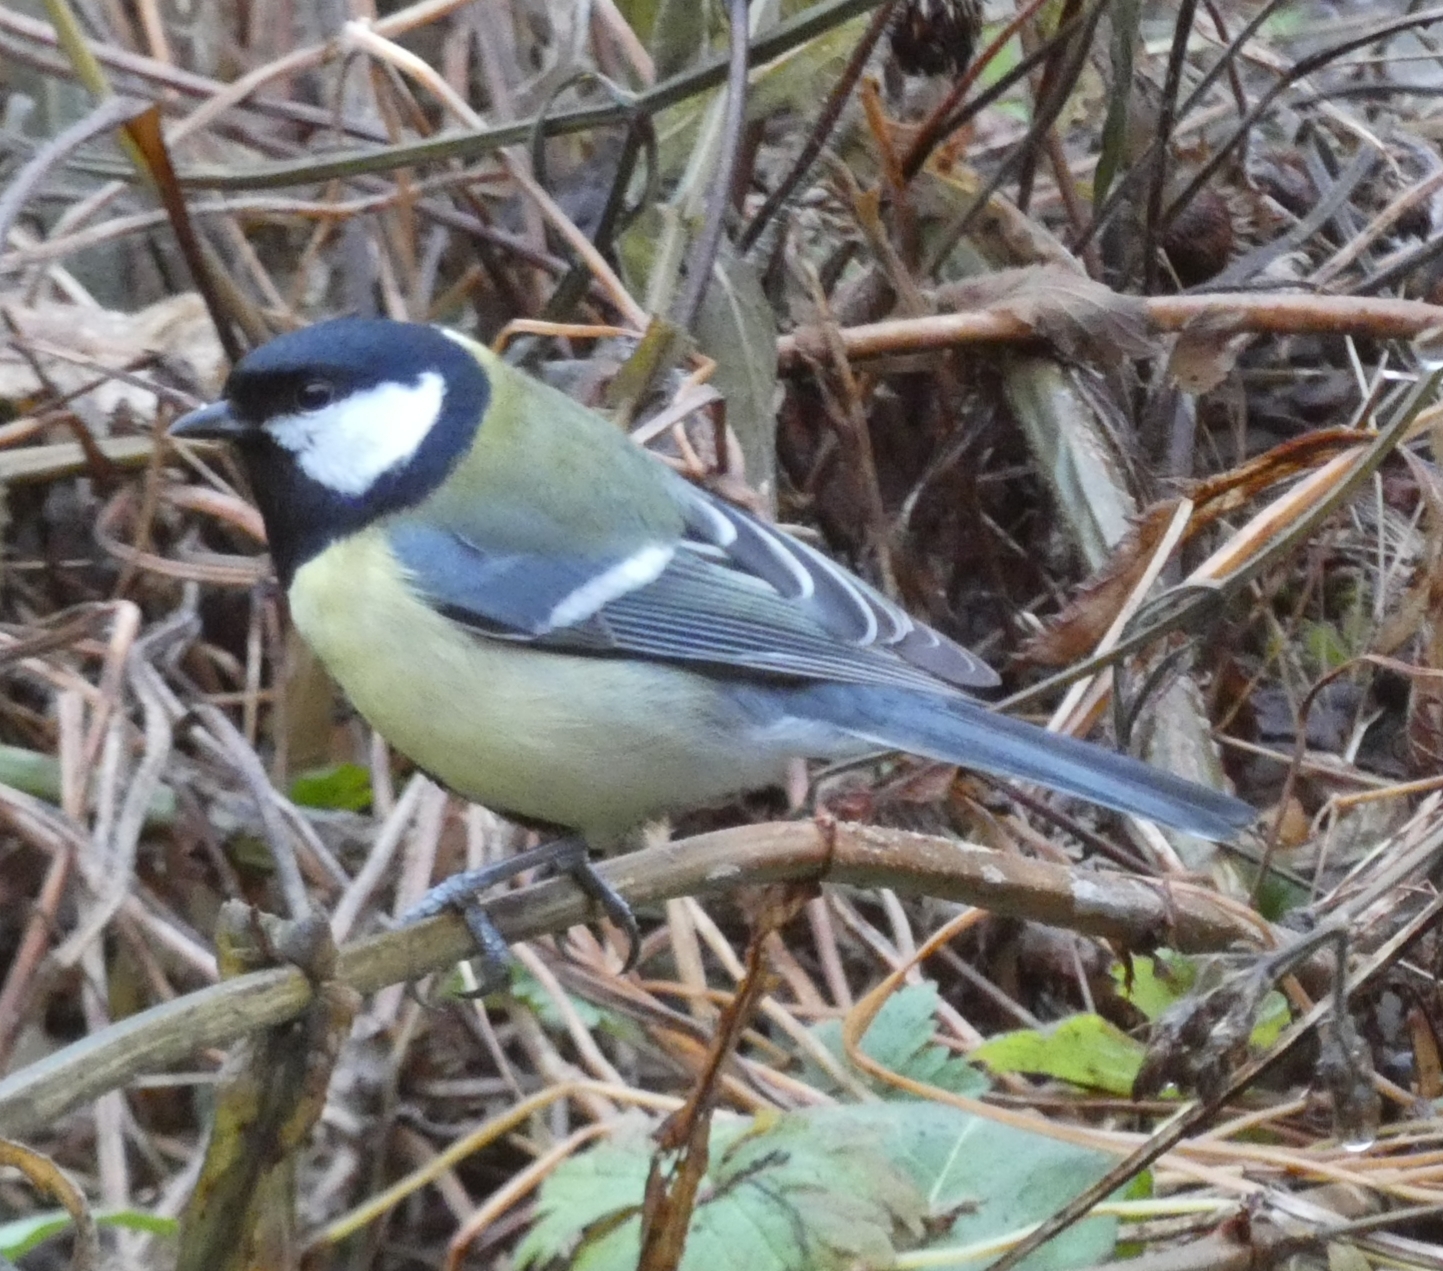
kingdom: Animalia
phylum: Chordata
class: Aves
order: Passeriformes
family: Paridae
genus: Parus
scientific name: Parus major
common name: Great tit
